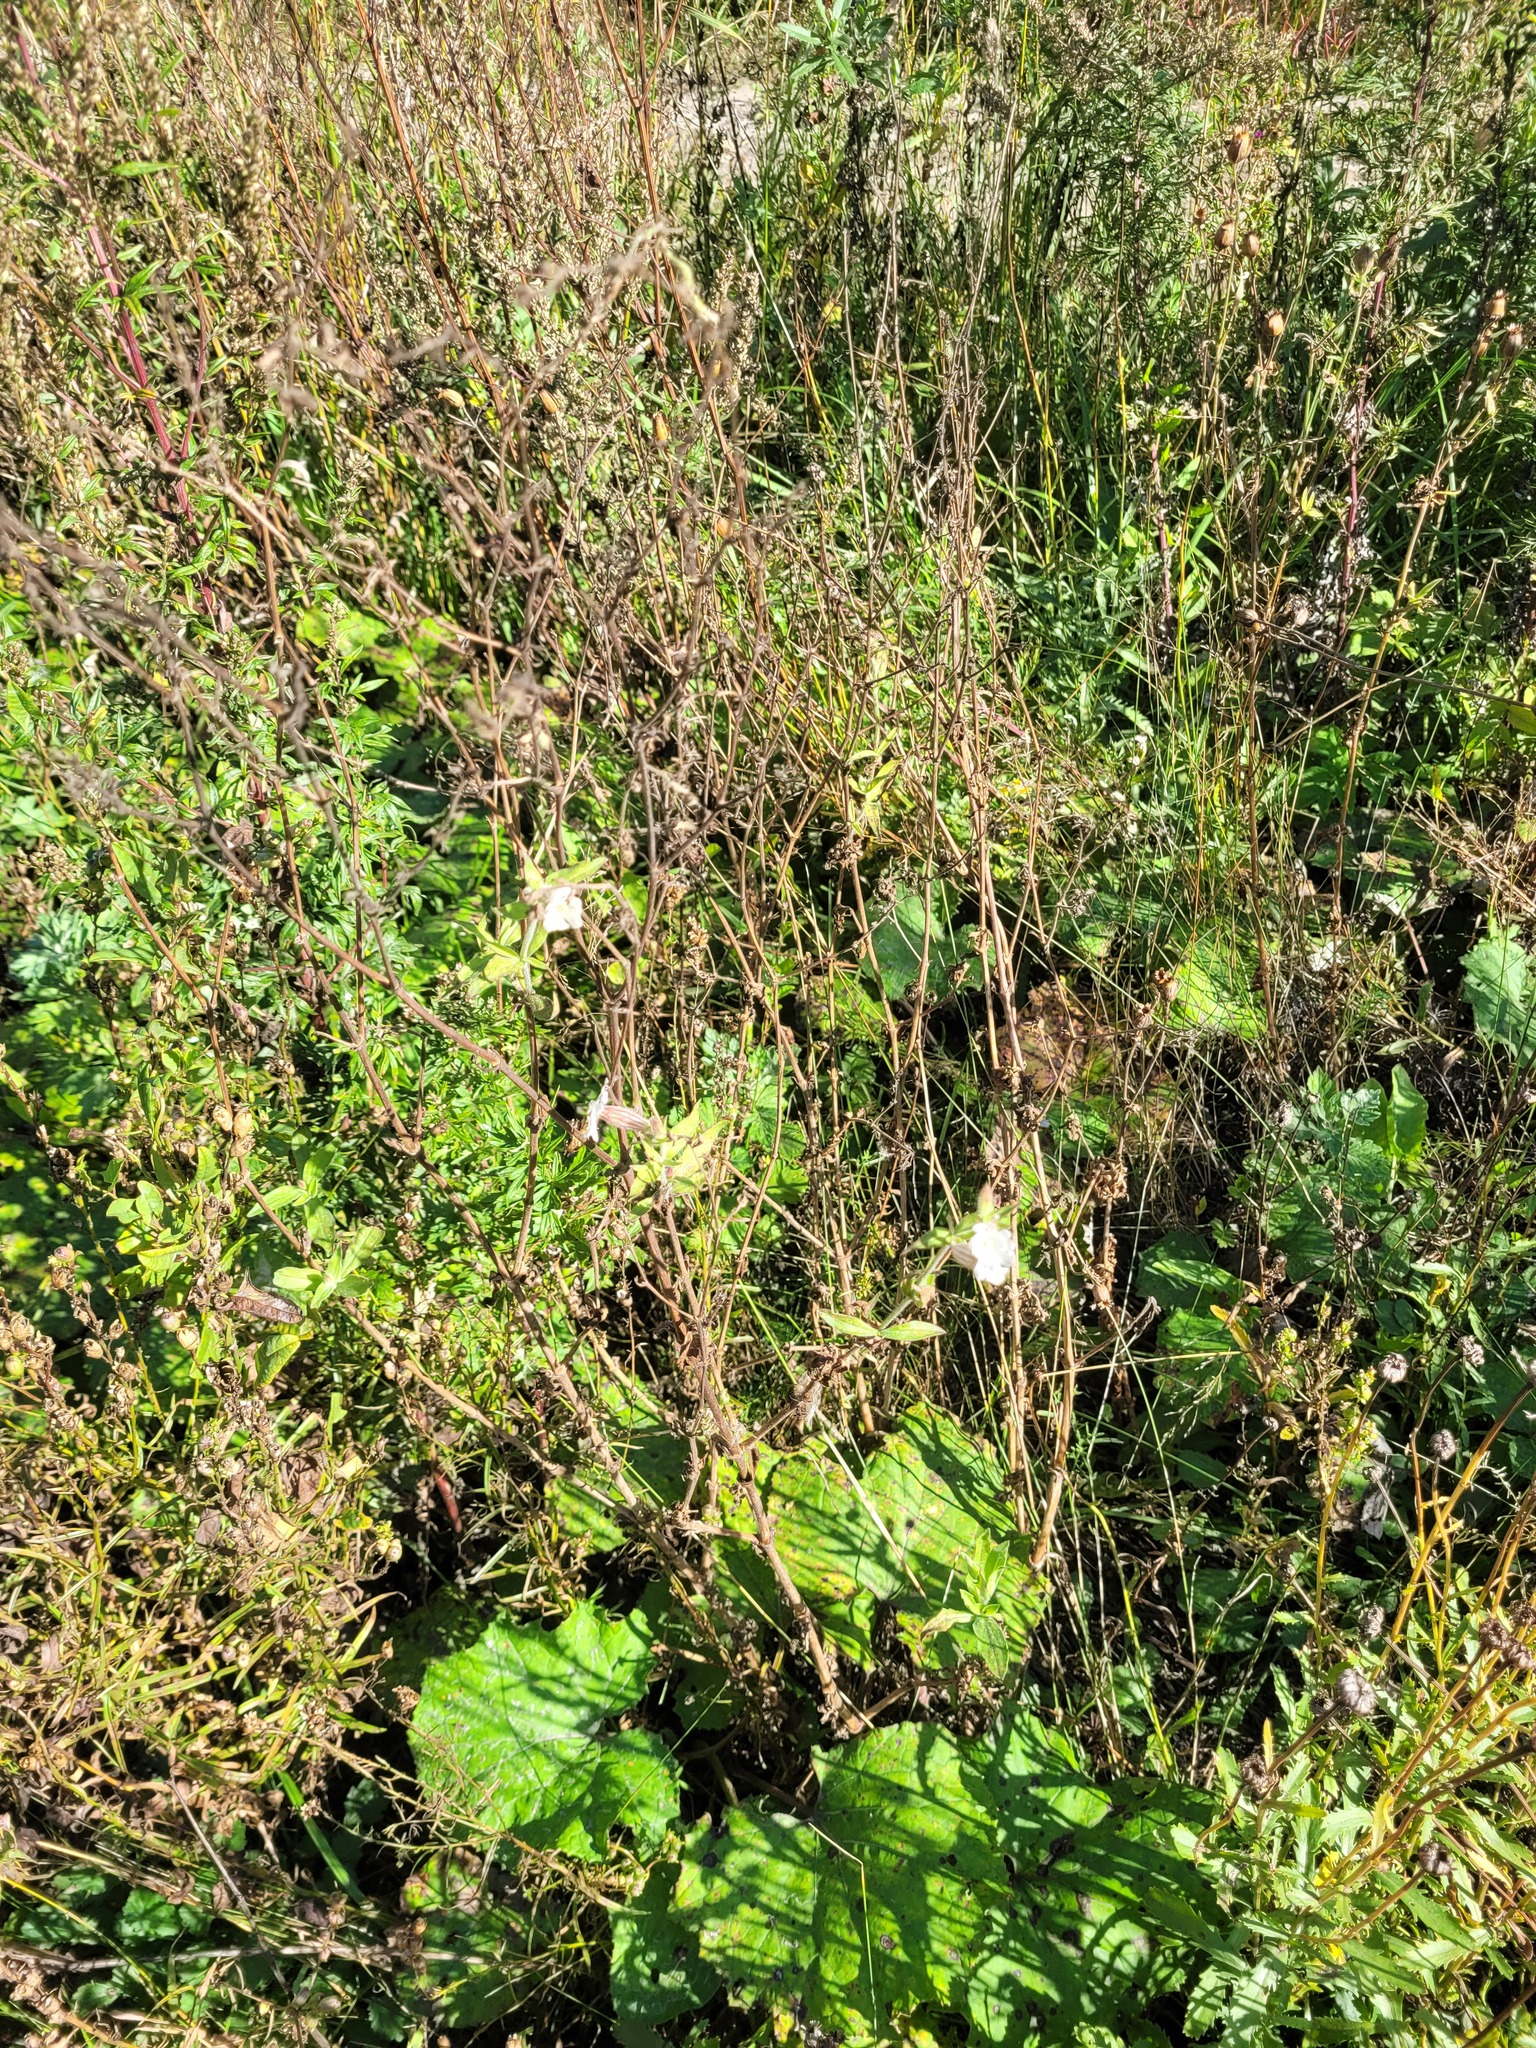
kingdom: Plantae
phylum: Tracheophyta
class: Magnoliopsida
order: Caryophyllales
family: Caryophyllaceae
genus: Silene
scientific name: Silene latifolia
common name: White campion
